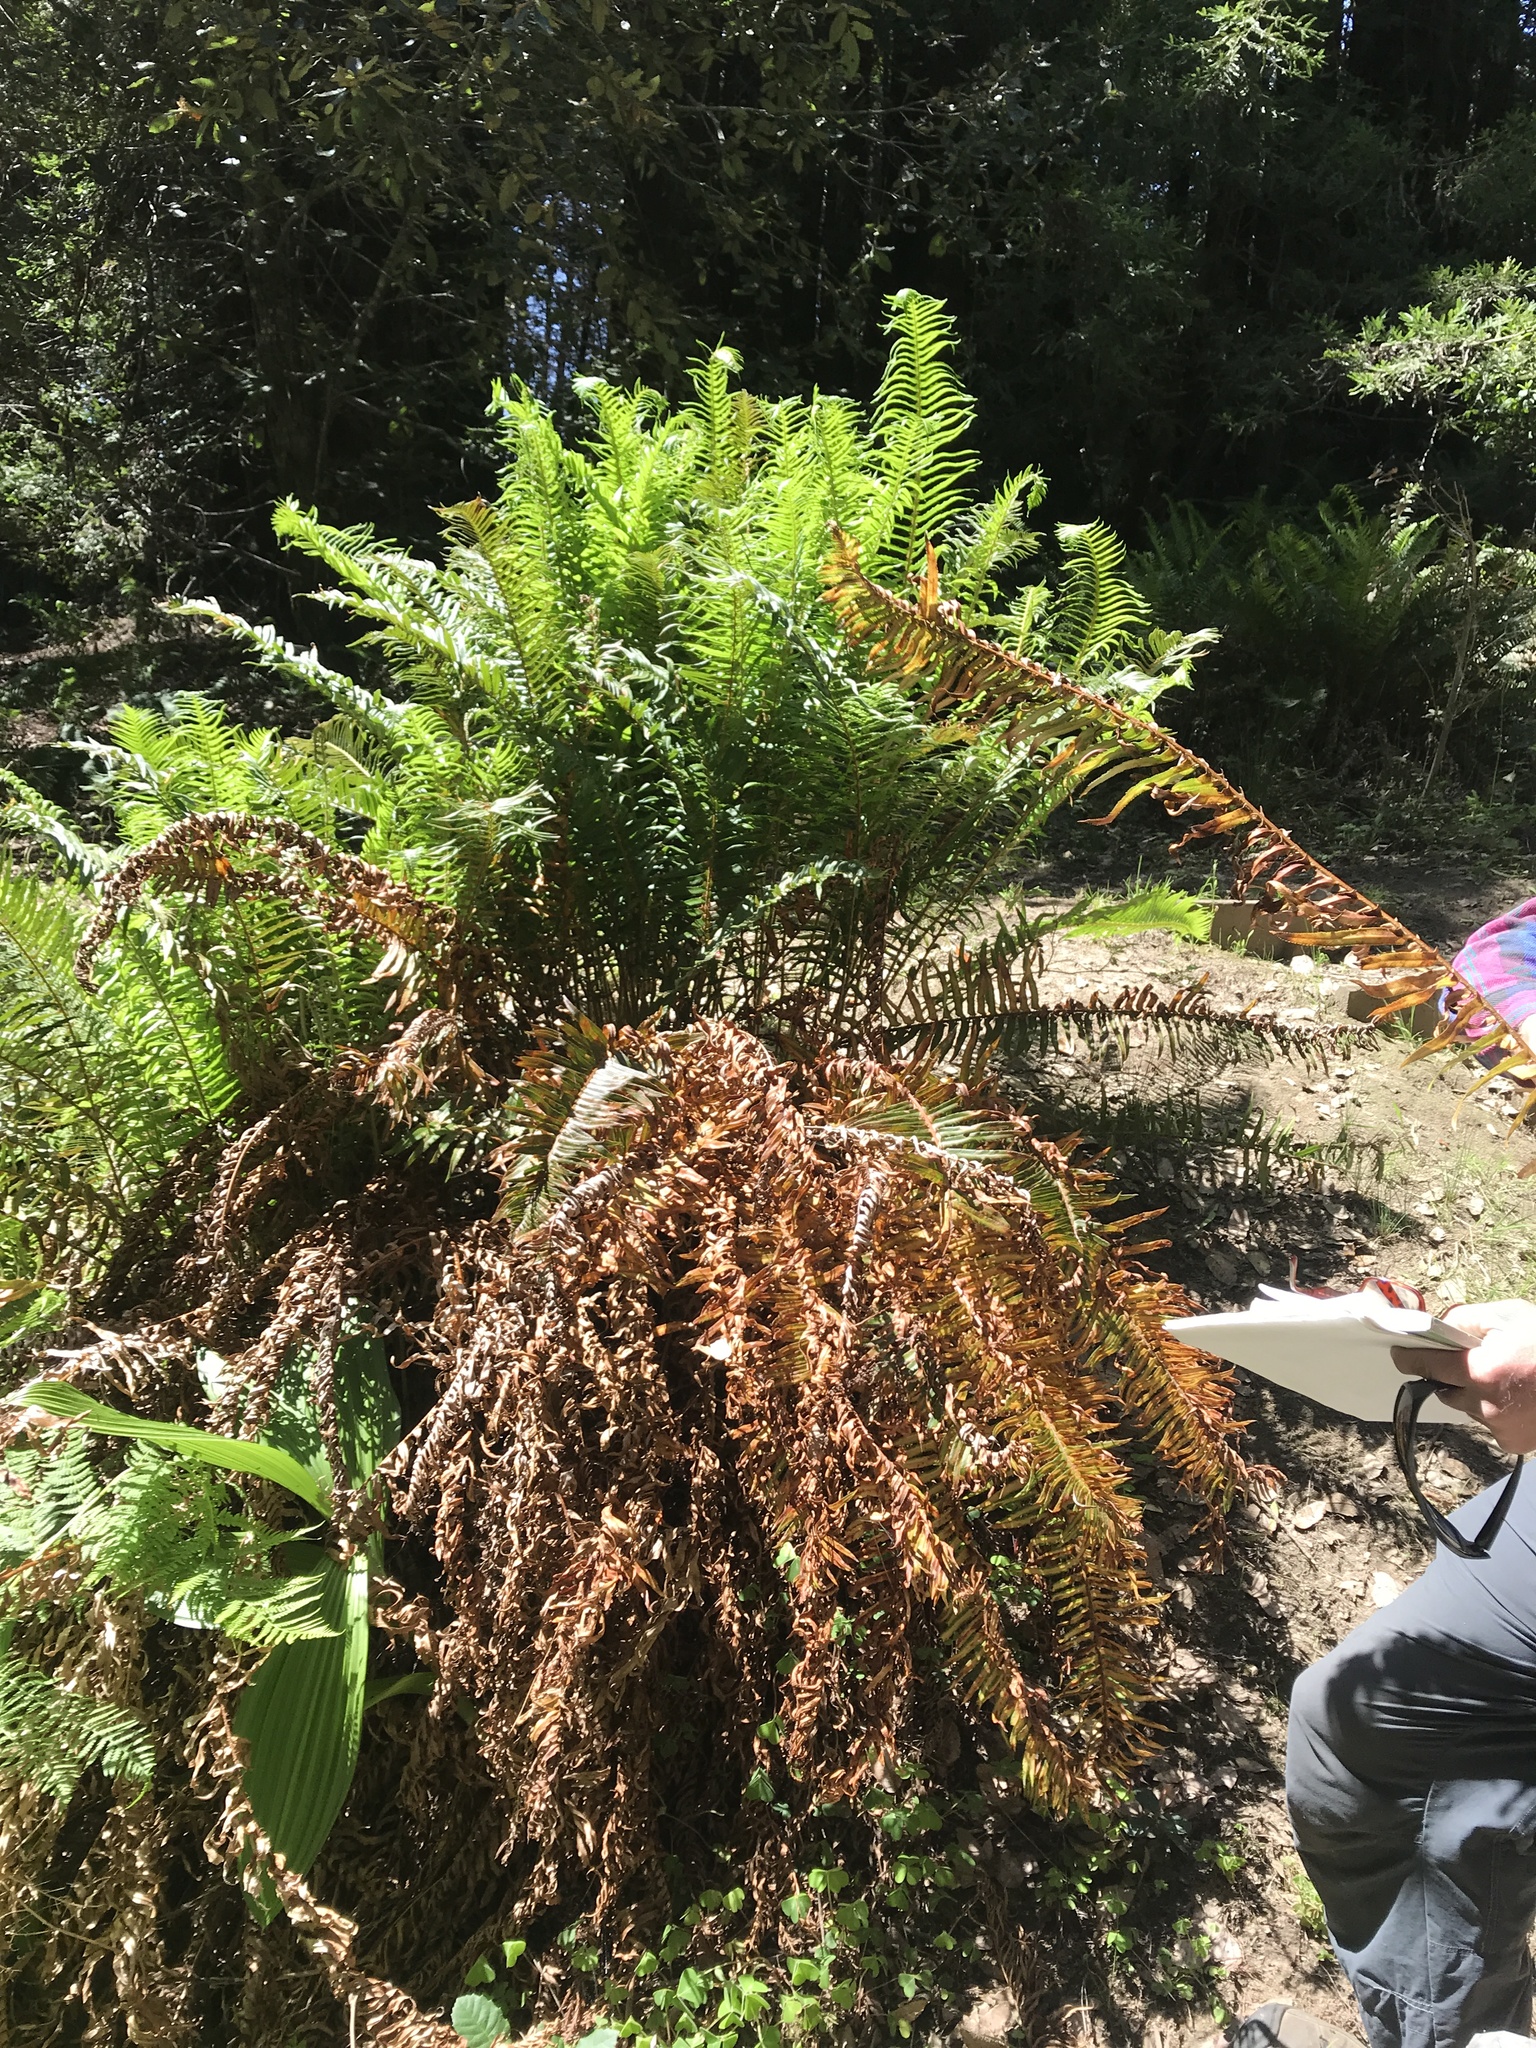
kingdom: Plantae
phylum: Tracheophyta
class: Polypodiopsida
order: Polypodiales
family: Dryopteridaceae
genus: Polystichum
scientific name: Polystichum munitum
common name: Western sword-fern
